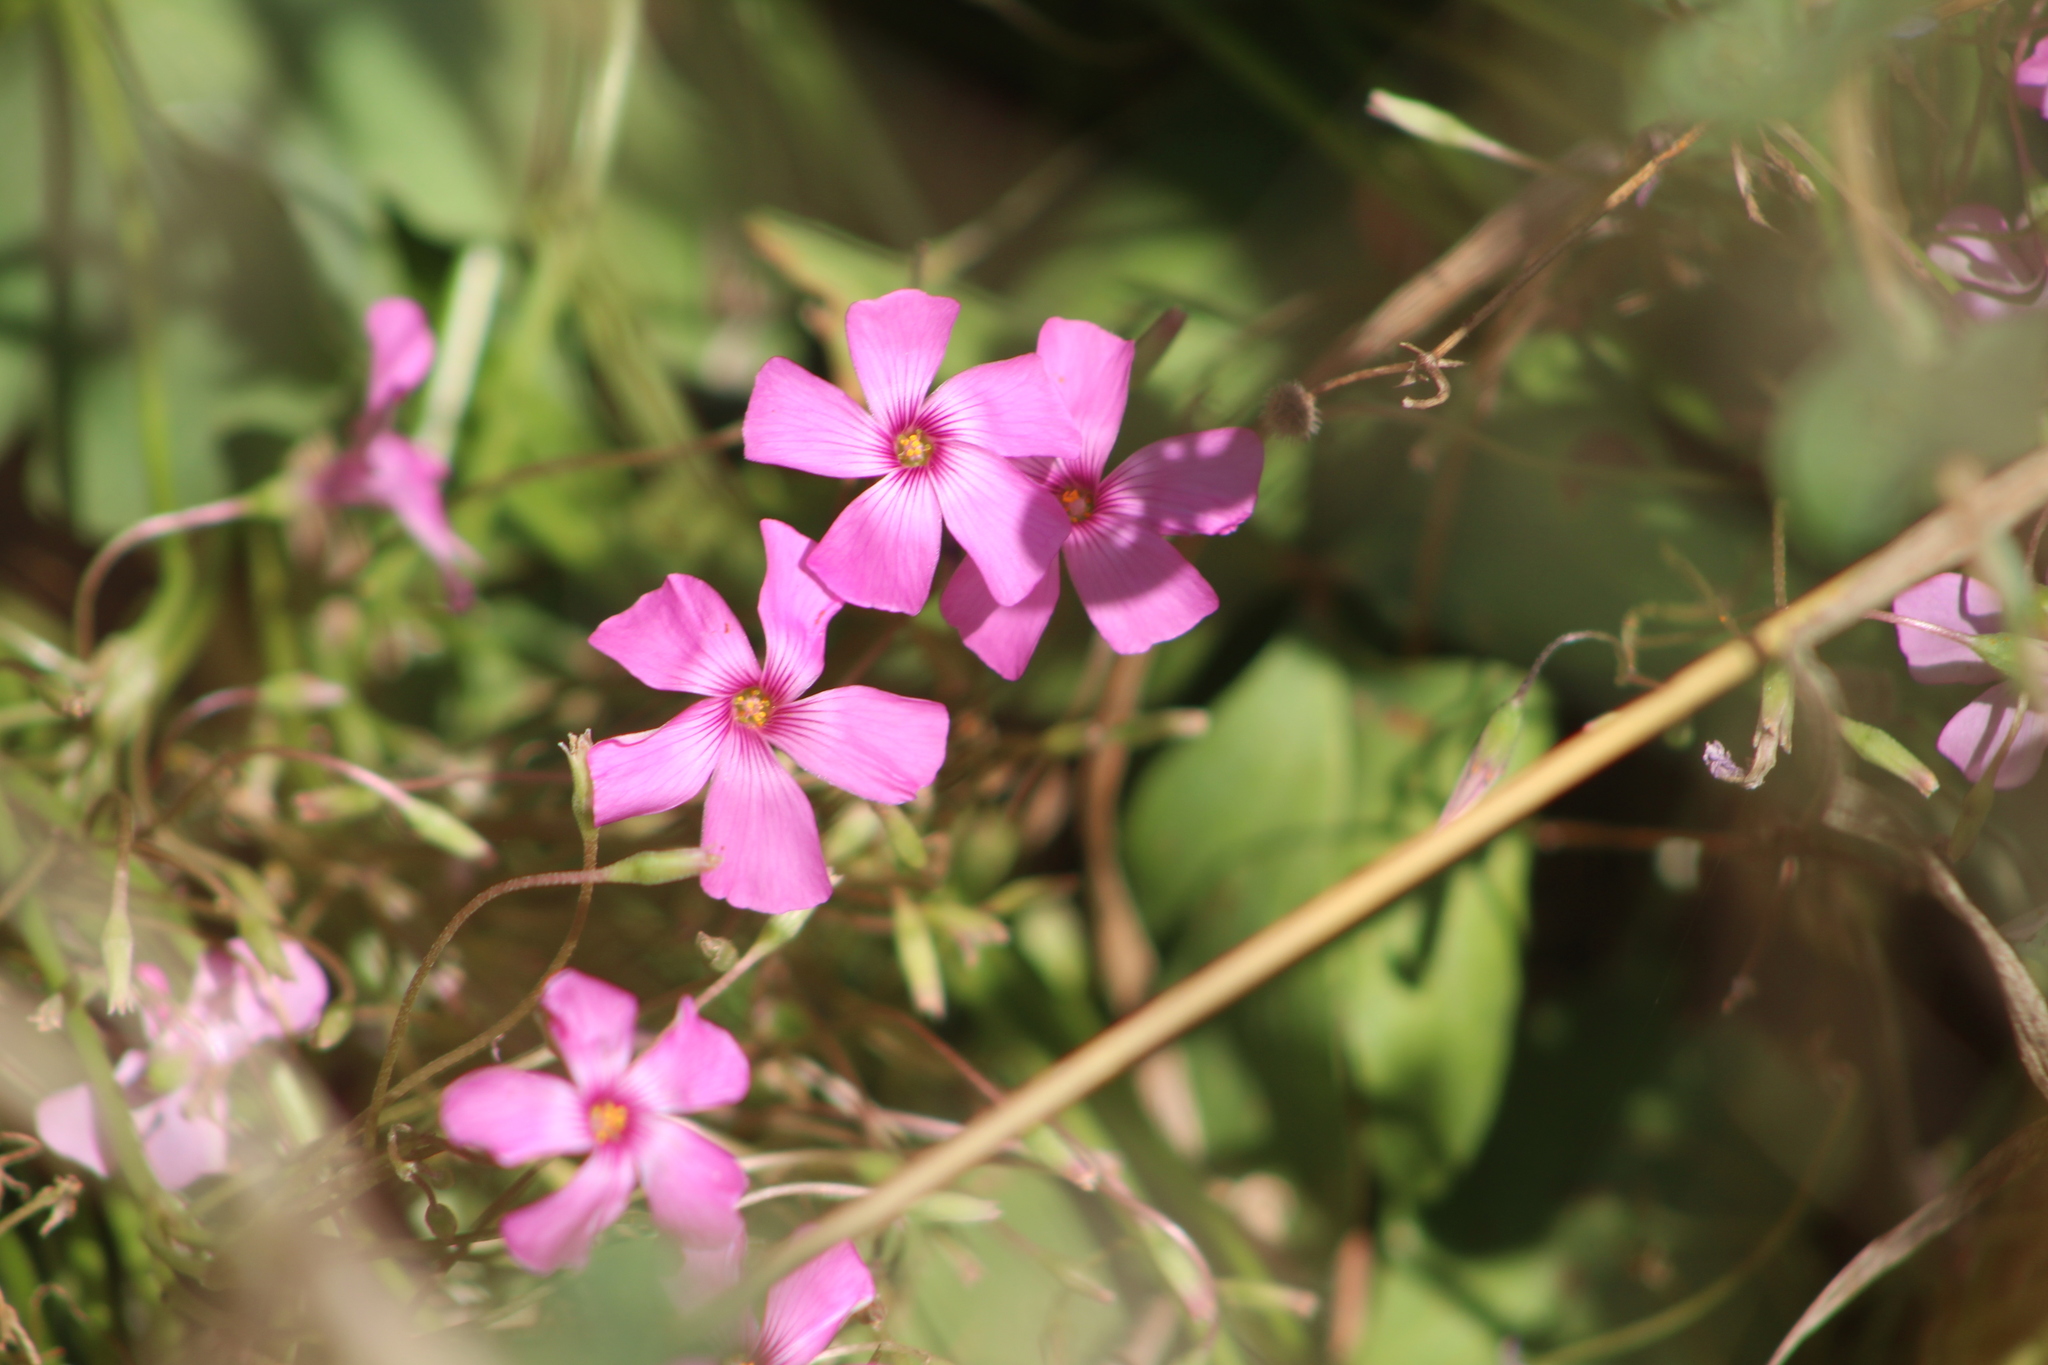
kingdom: Plantae
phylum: Tracheophyta
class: Magnoliopsida
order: Oxalidales
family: Oxalidaceae
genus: Oxalis
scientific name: Oxalis articulata
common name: Pink-sorrel
